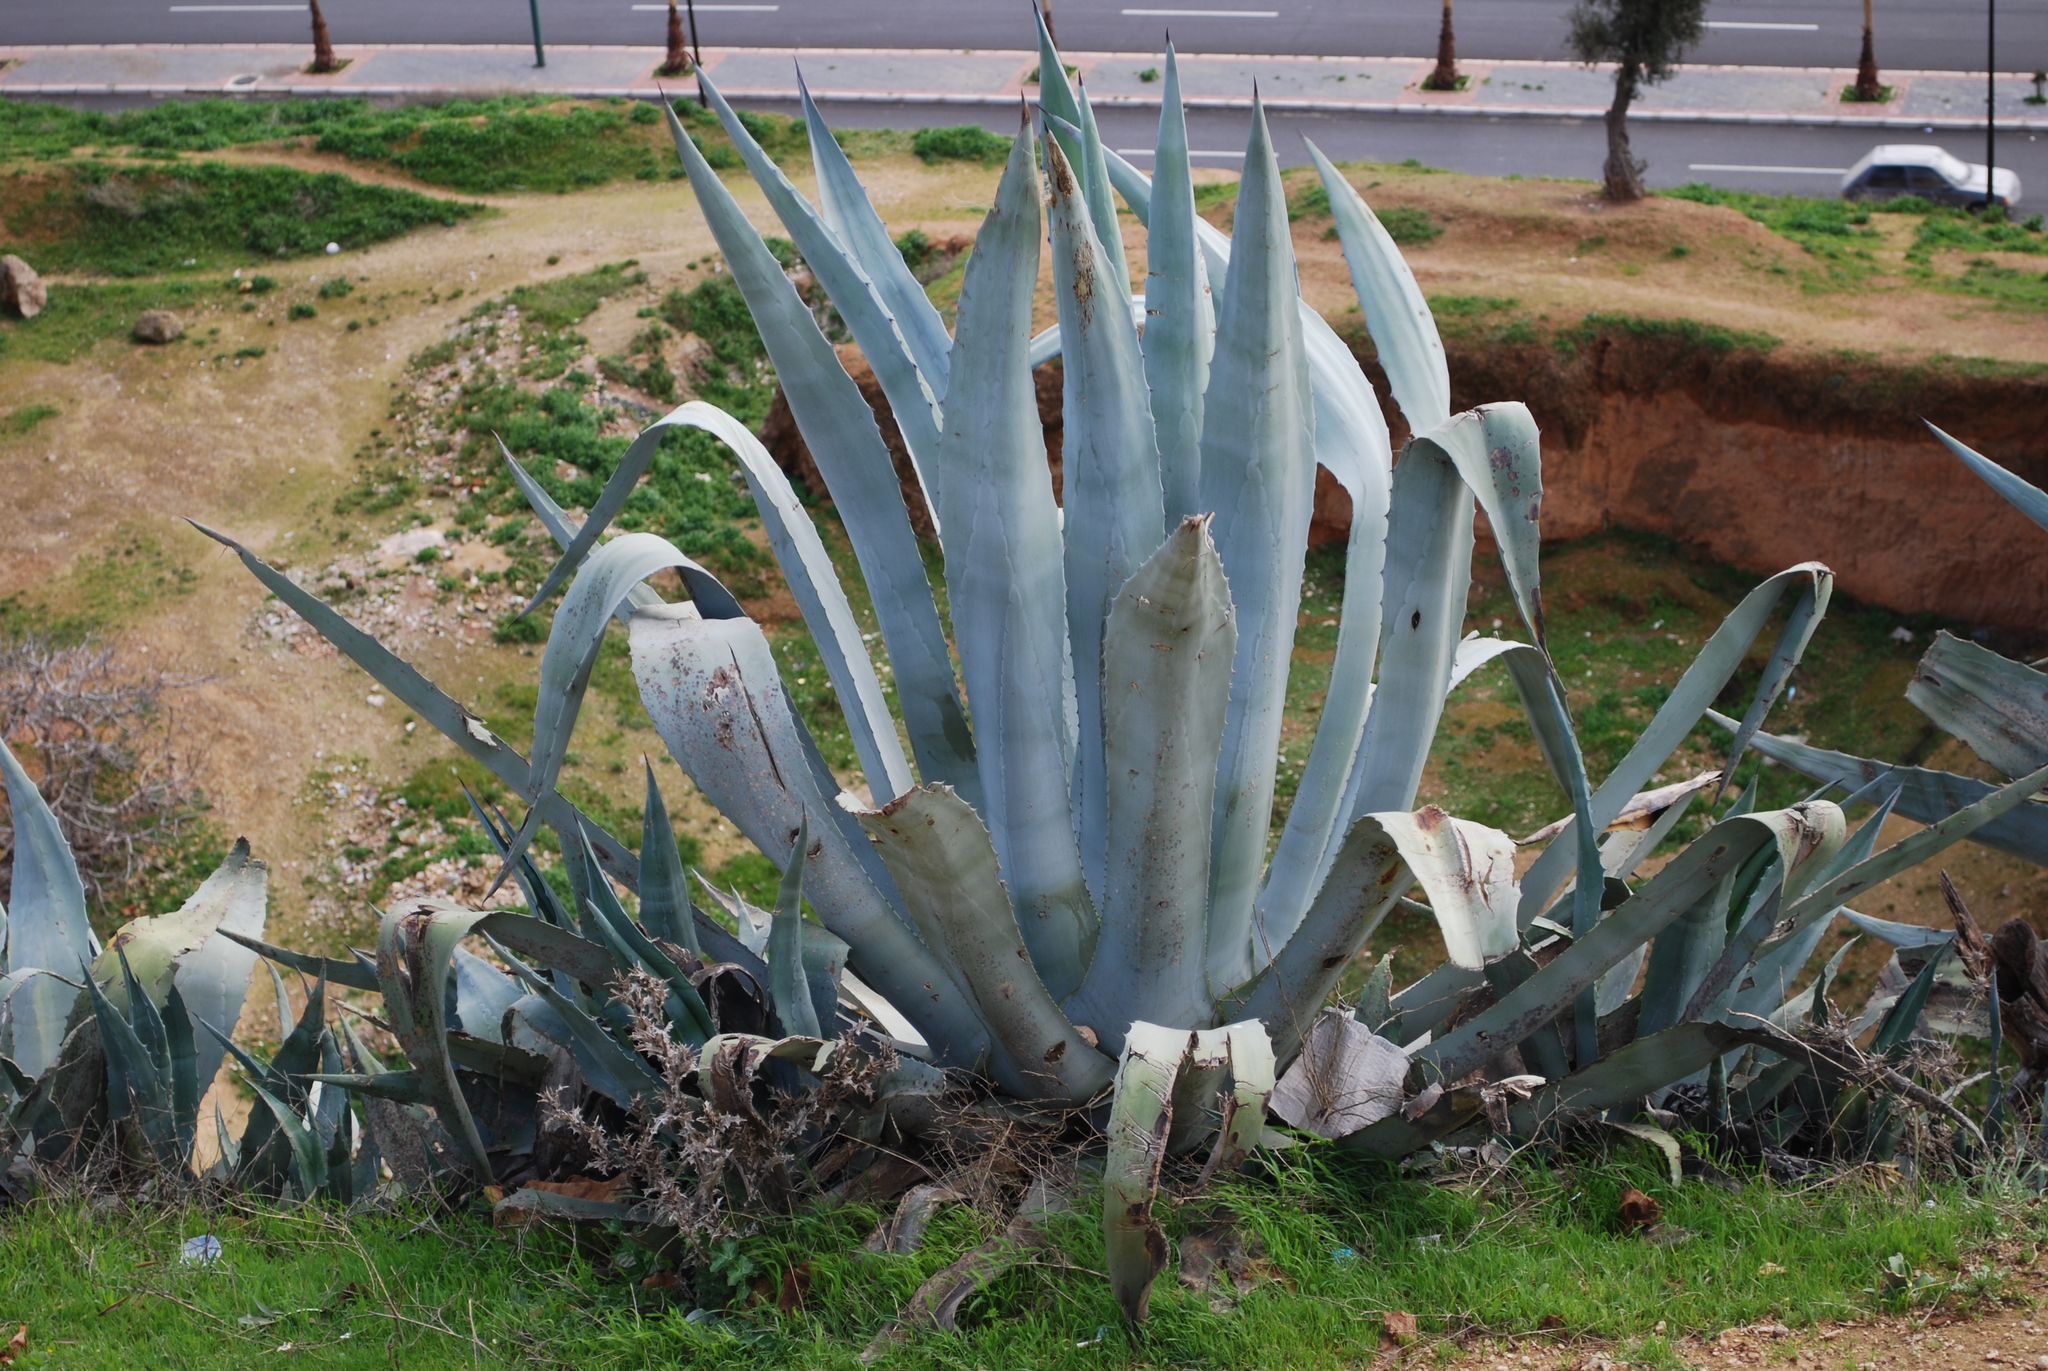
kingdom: Plantae
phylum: Tracheophyta
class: Liliopsida
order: Asparagales
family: Asparagaceae
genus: Agave
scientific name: Agave americana
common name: Centuryplant
